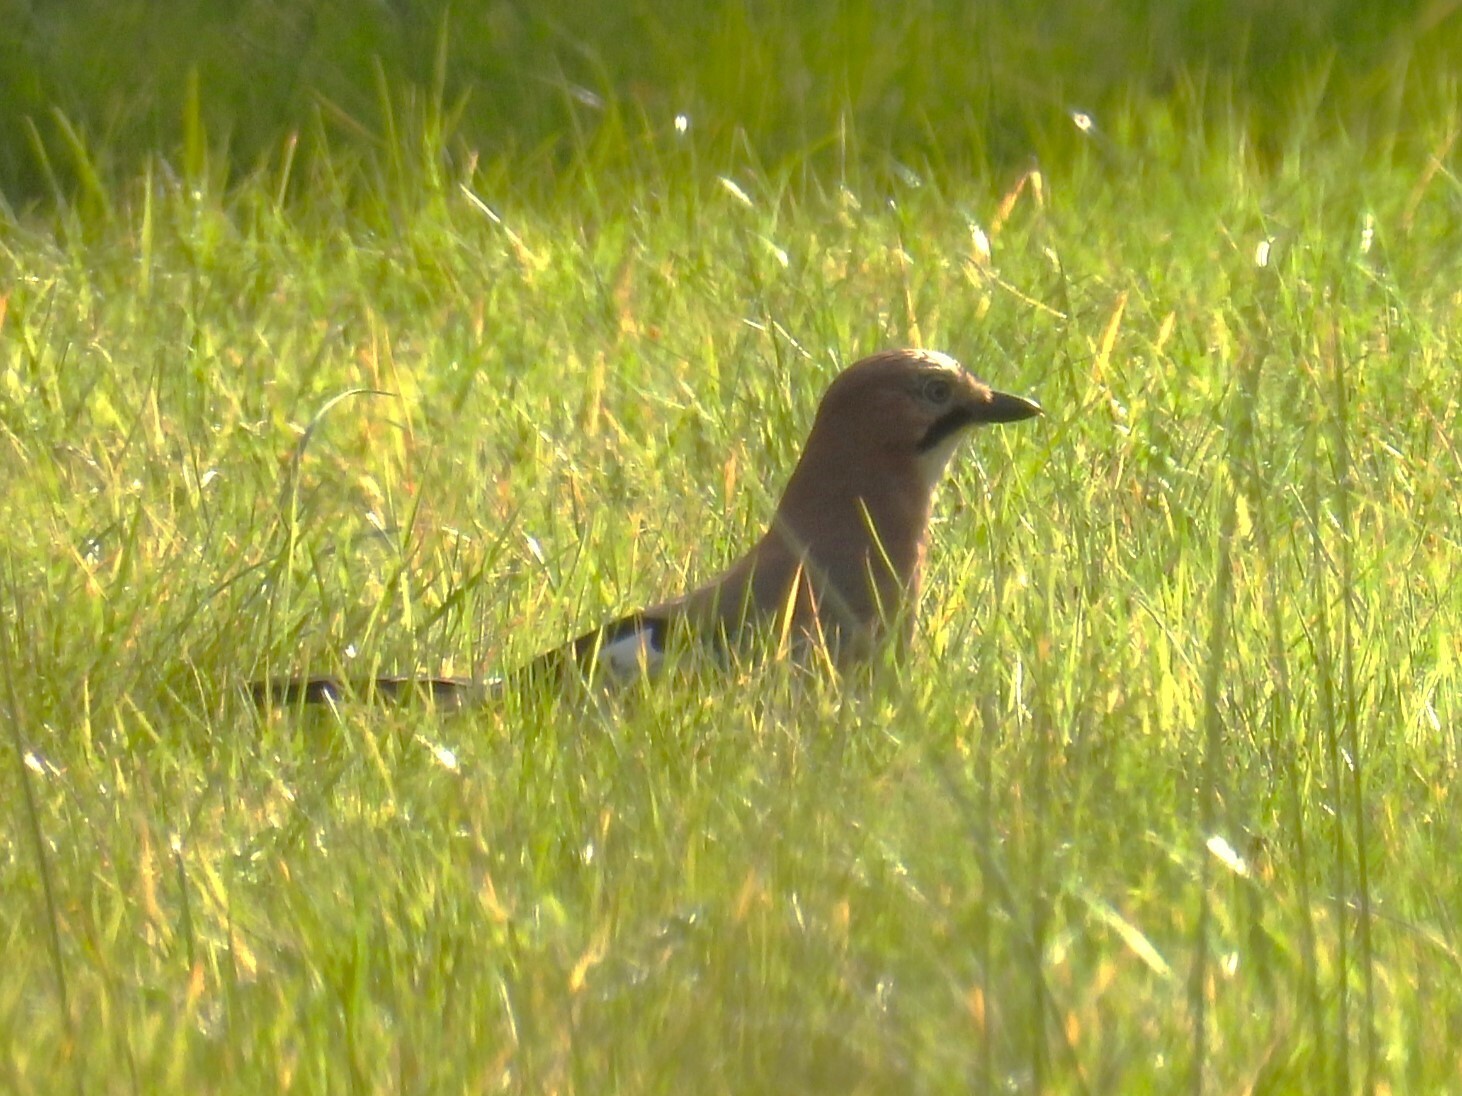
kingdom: Animalia
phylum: Chordata
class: Aves
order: Passeriformes
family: Corvidae
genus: Garrulus
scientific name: Garrulus glandarius
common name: Eurasian jay
